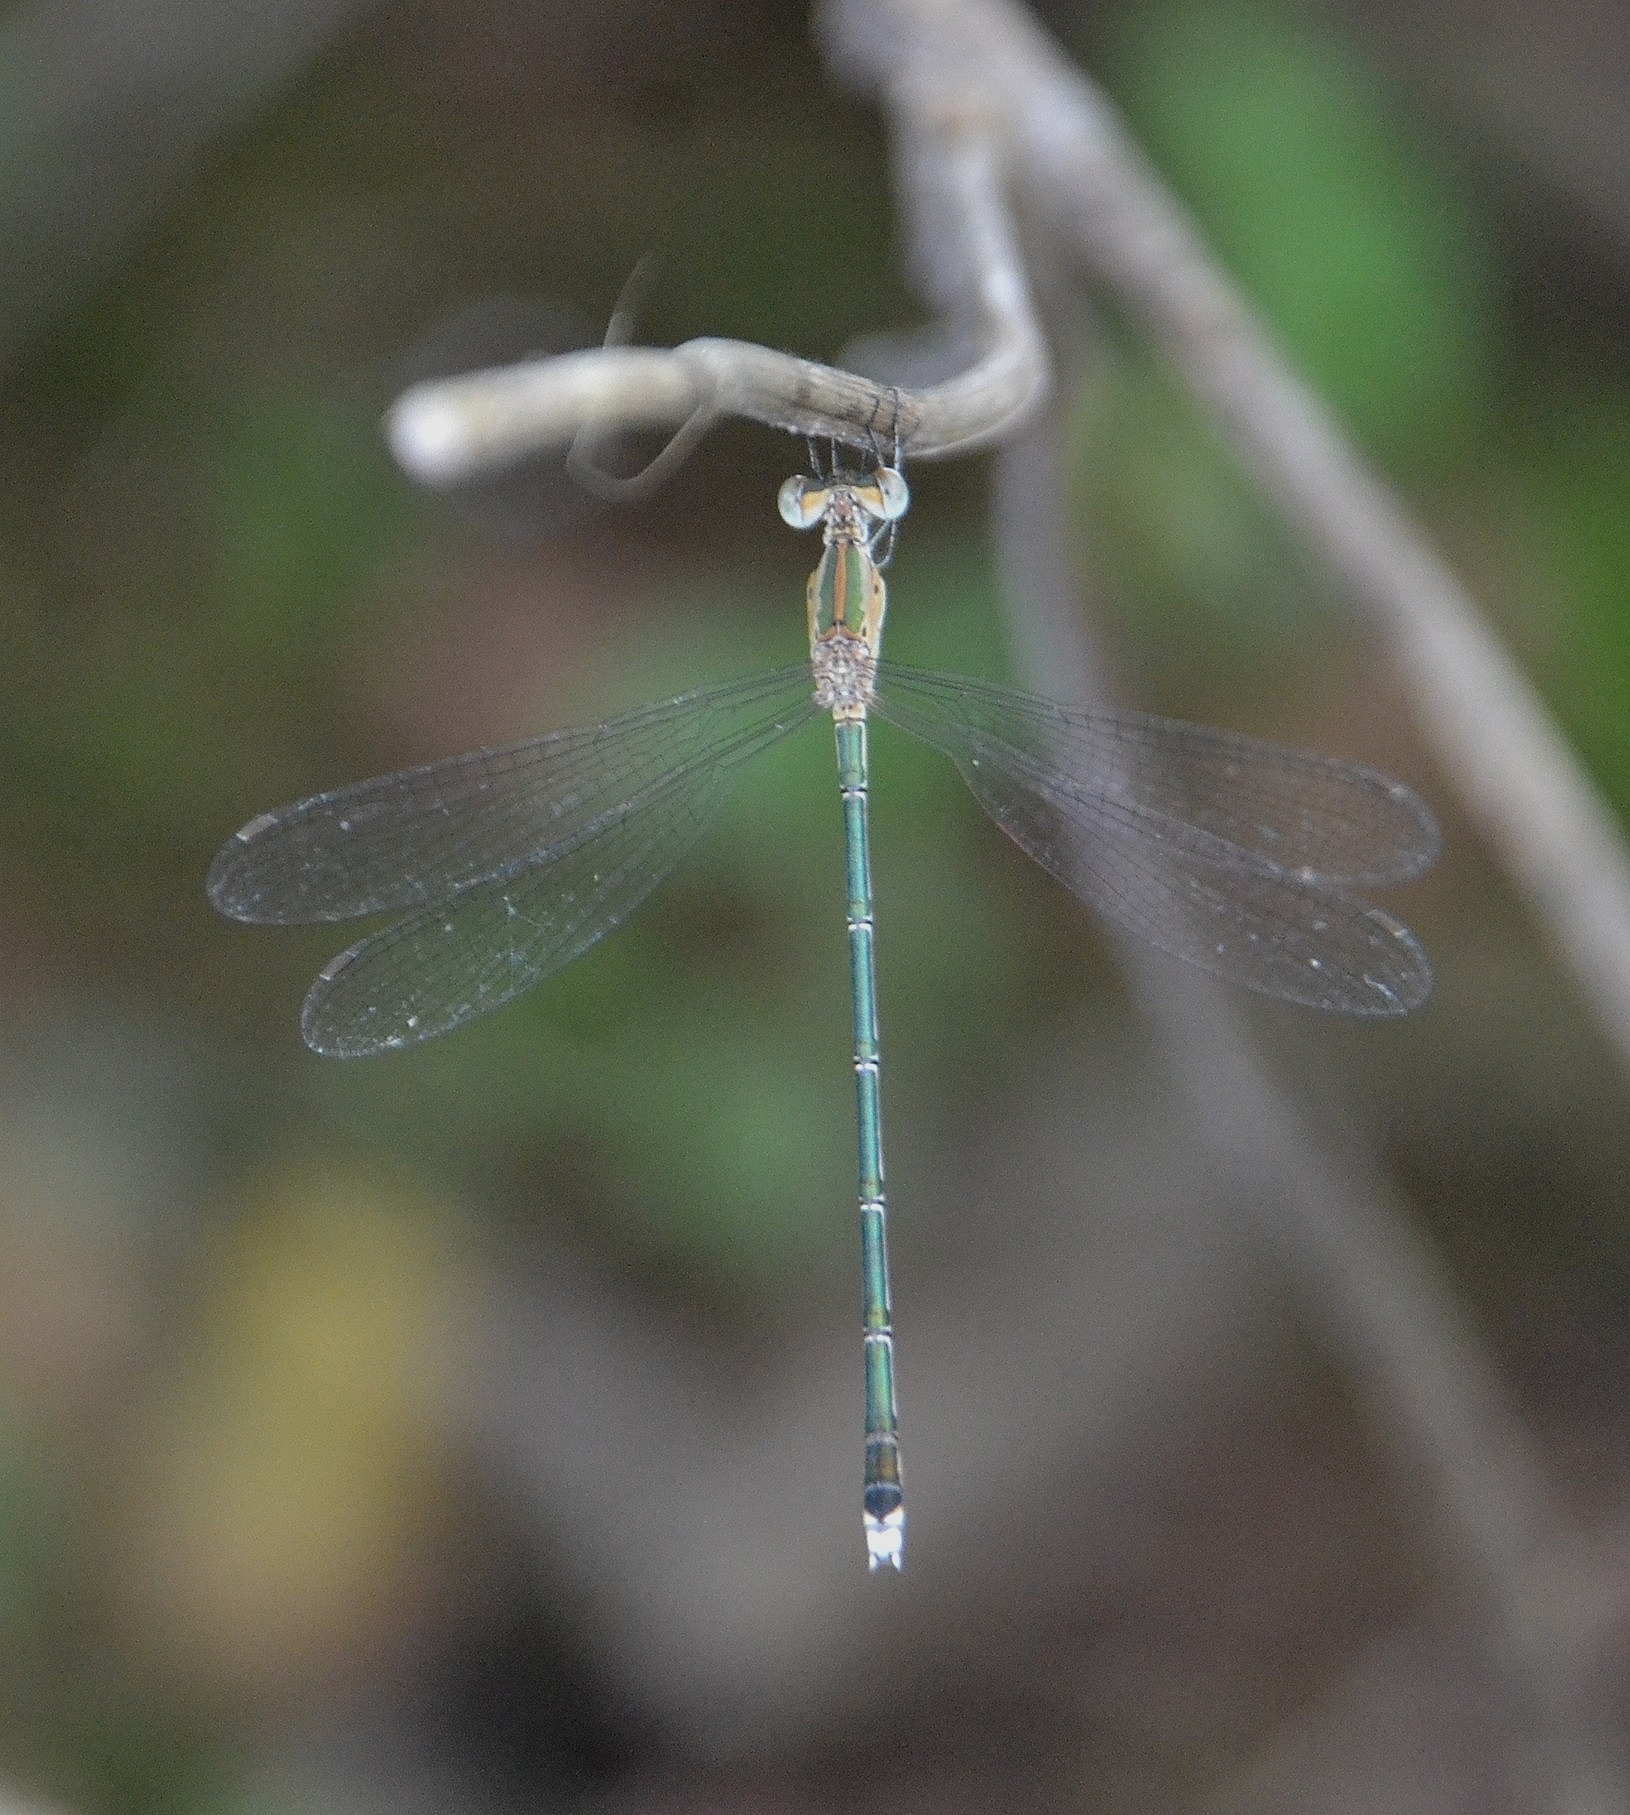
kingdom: Animalia
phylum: Arthropoda
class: Insecta
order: Odonata
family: Lestidae
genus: Lestes
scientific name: Lestes elatus
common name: Emerald spreadwing
